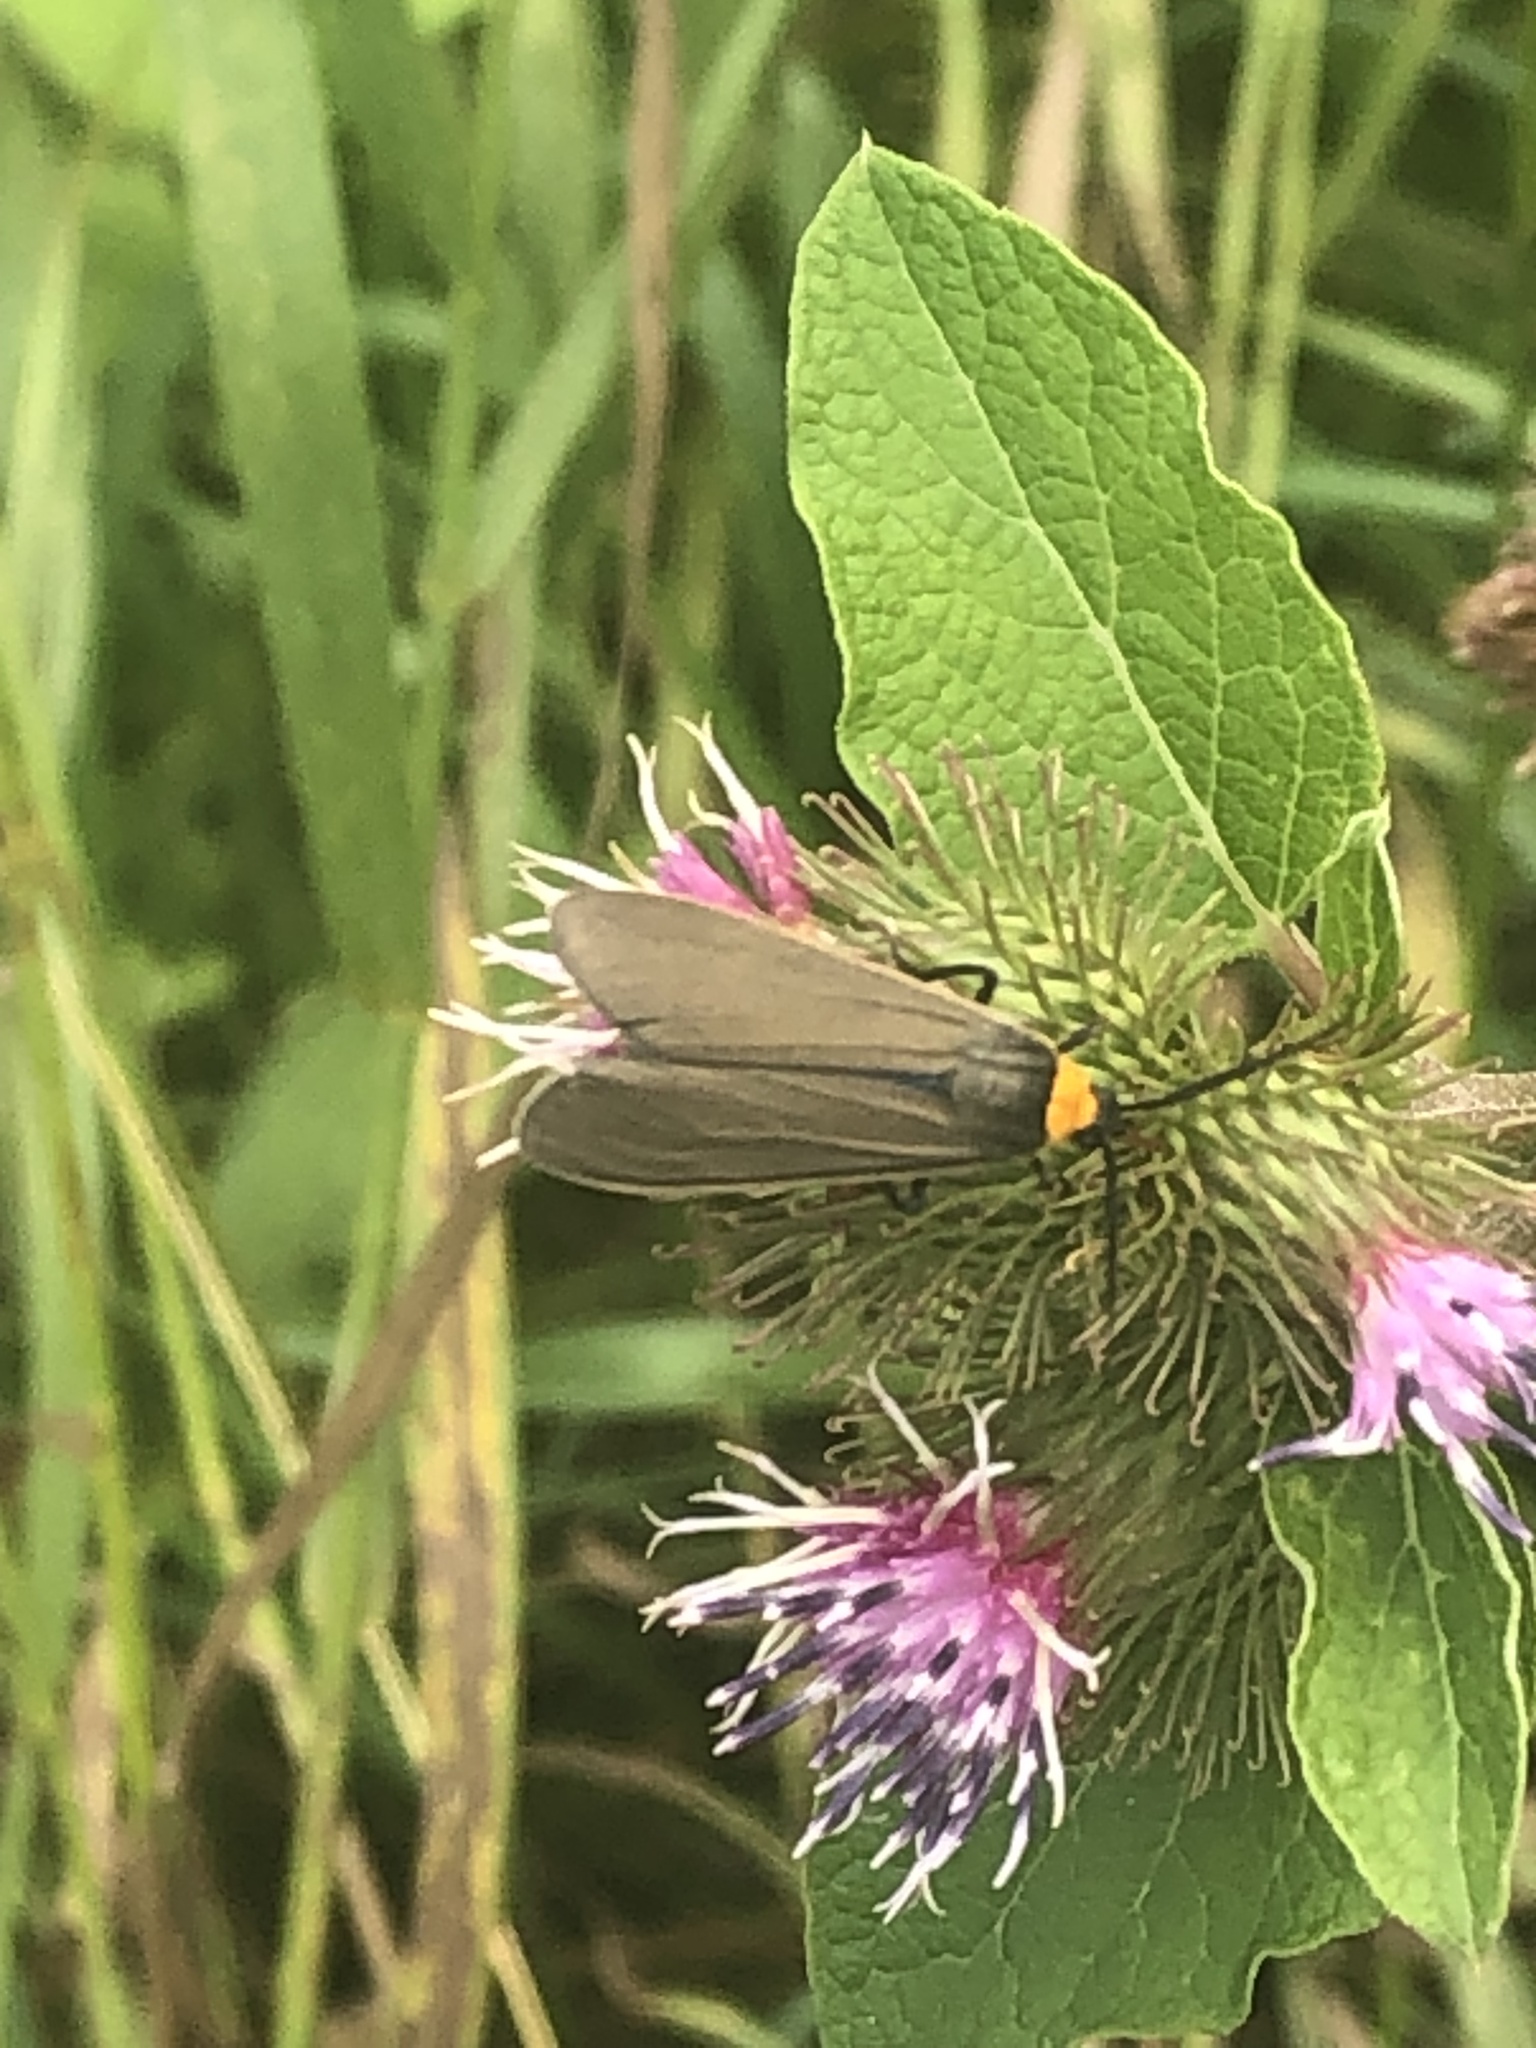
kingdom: Animalia
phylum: Arthropoda
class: Insecta
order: Lepidoptera
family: Erebidae
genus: Cisseps
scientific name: Cisseps fulvicollis
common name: Yellow-collared scape moth
